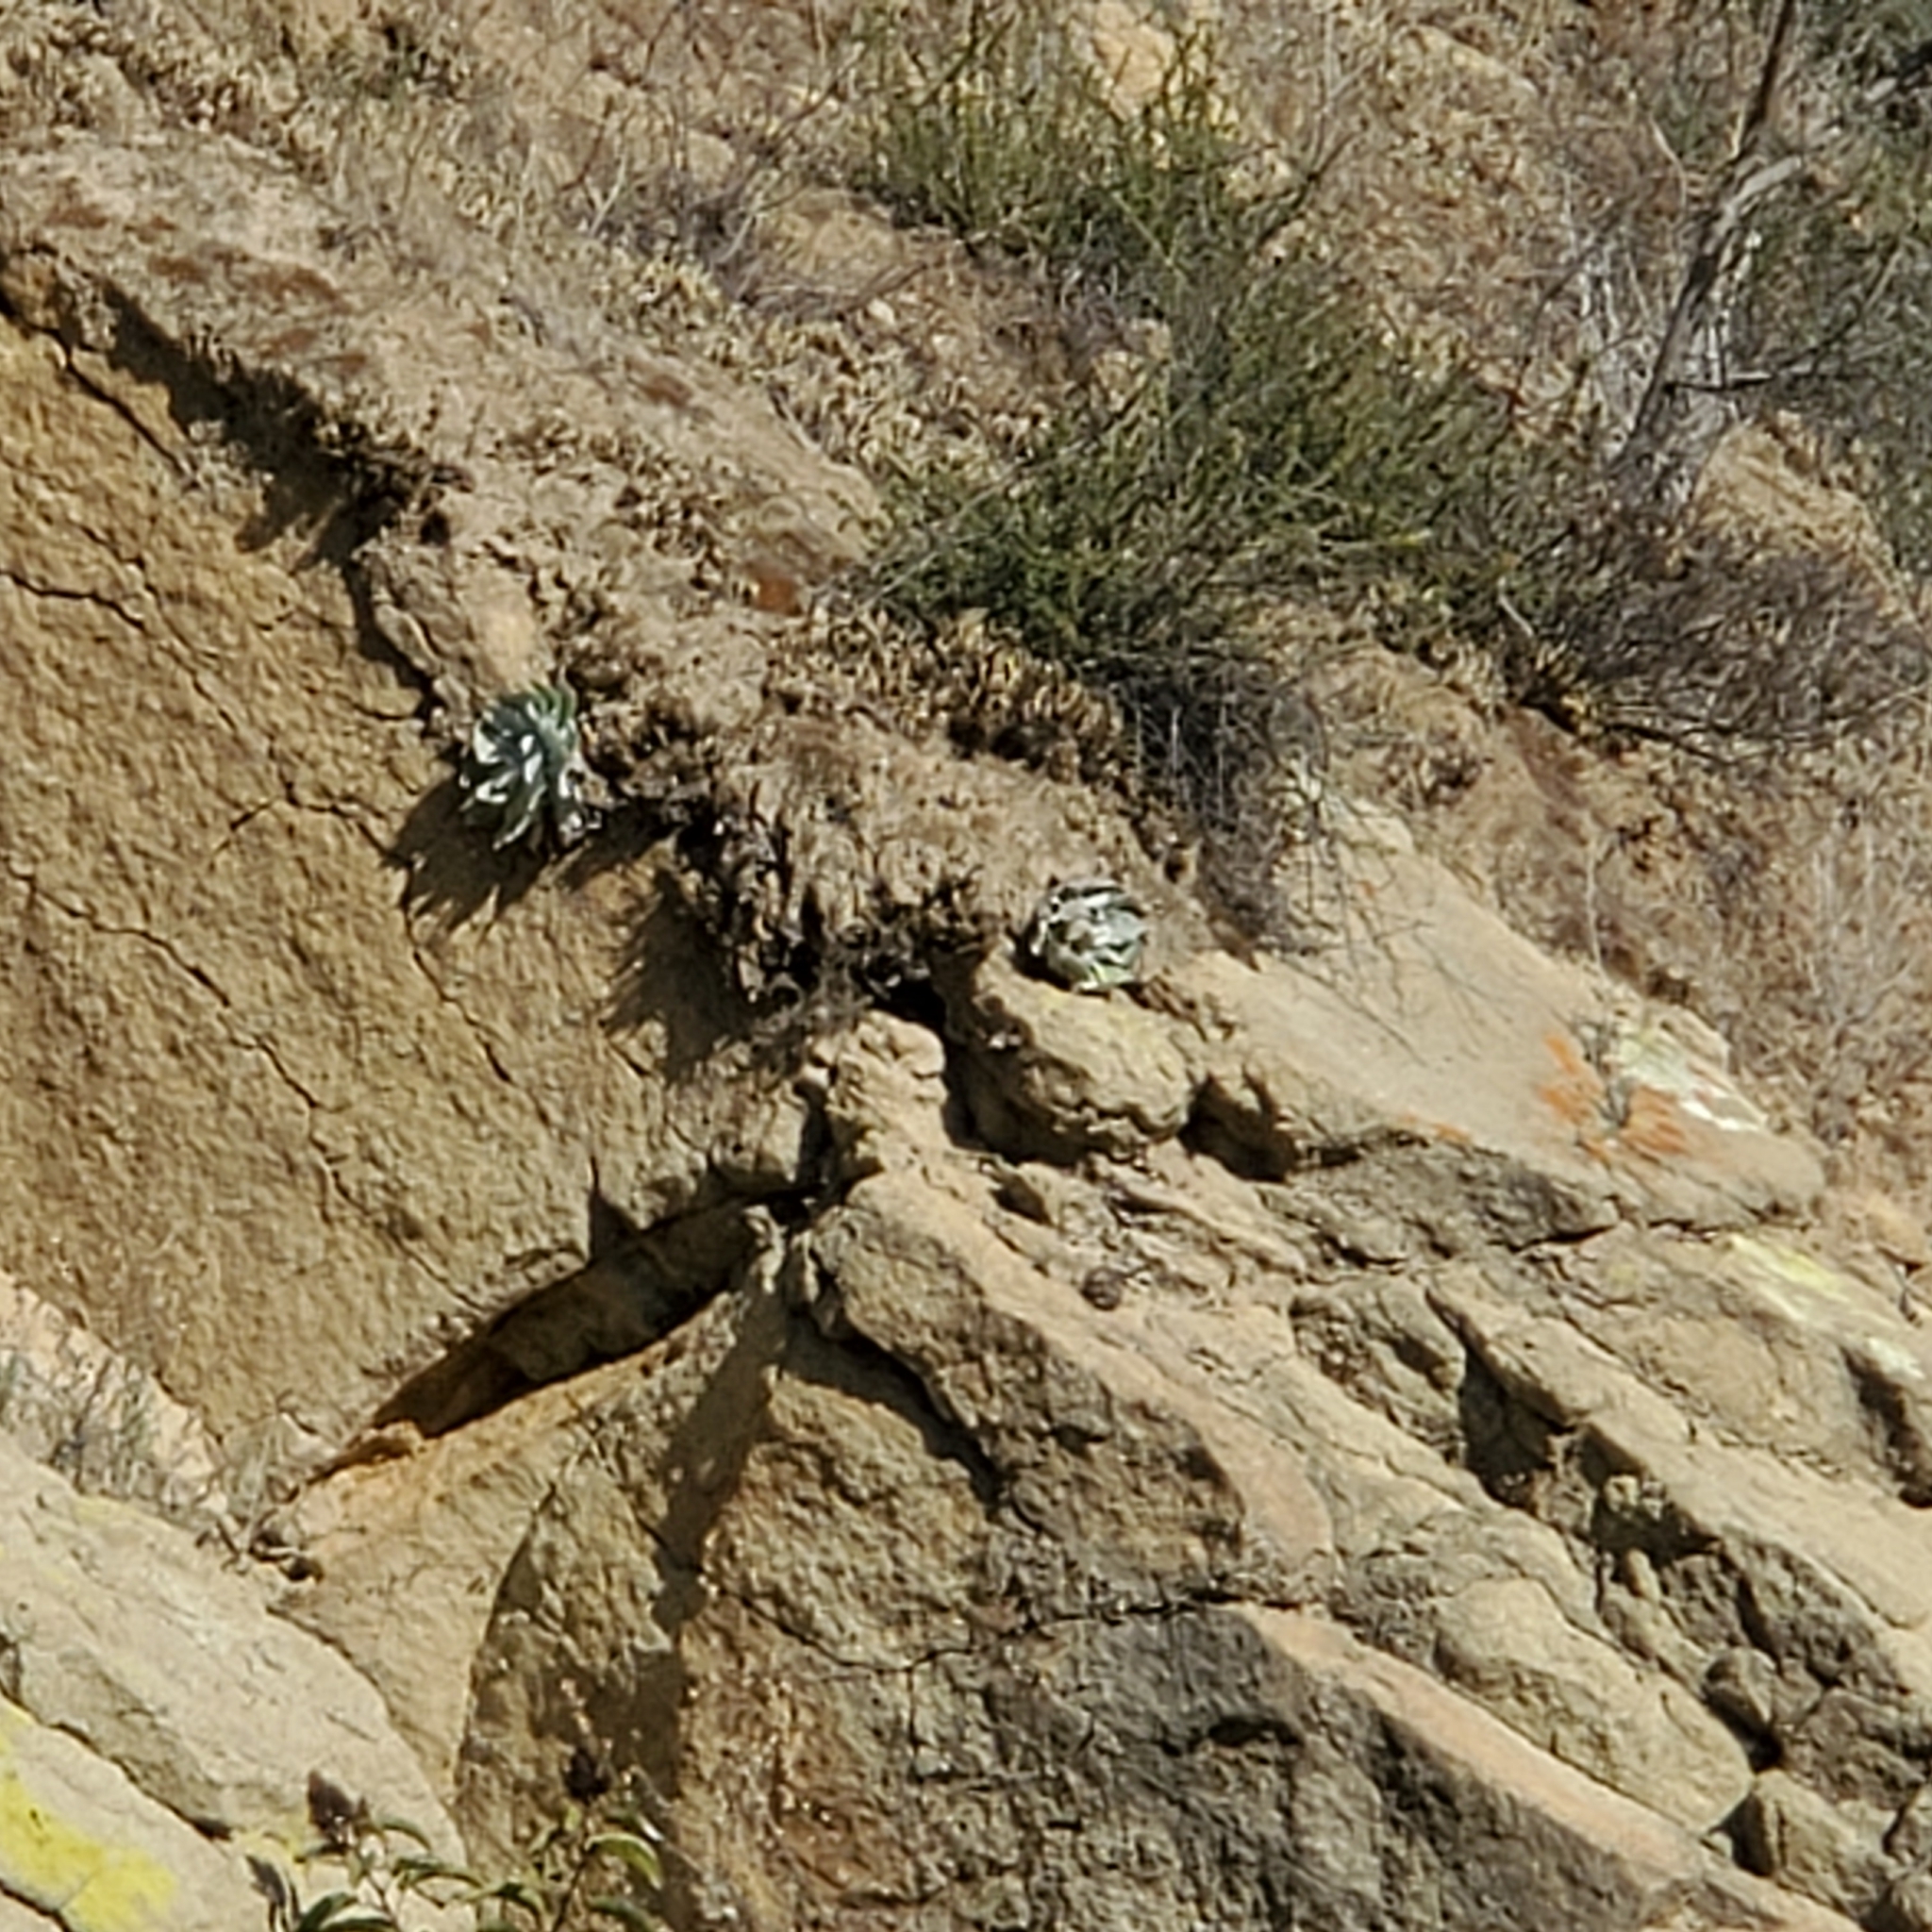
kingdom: Plantae
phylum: Tracheophyta
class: Magnoliopsida
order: Saxifragales
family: Crassulaceae
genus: Dudleya
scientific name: Dudleya pulverulenta
